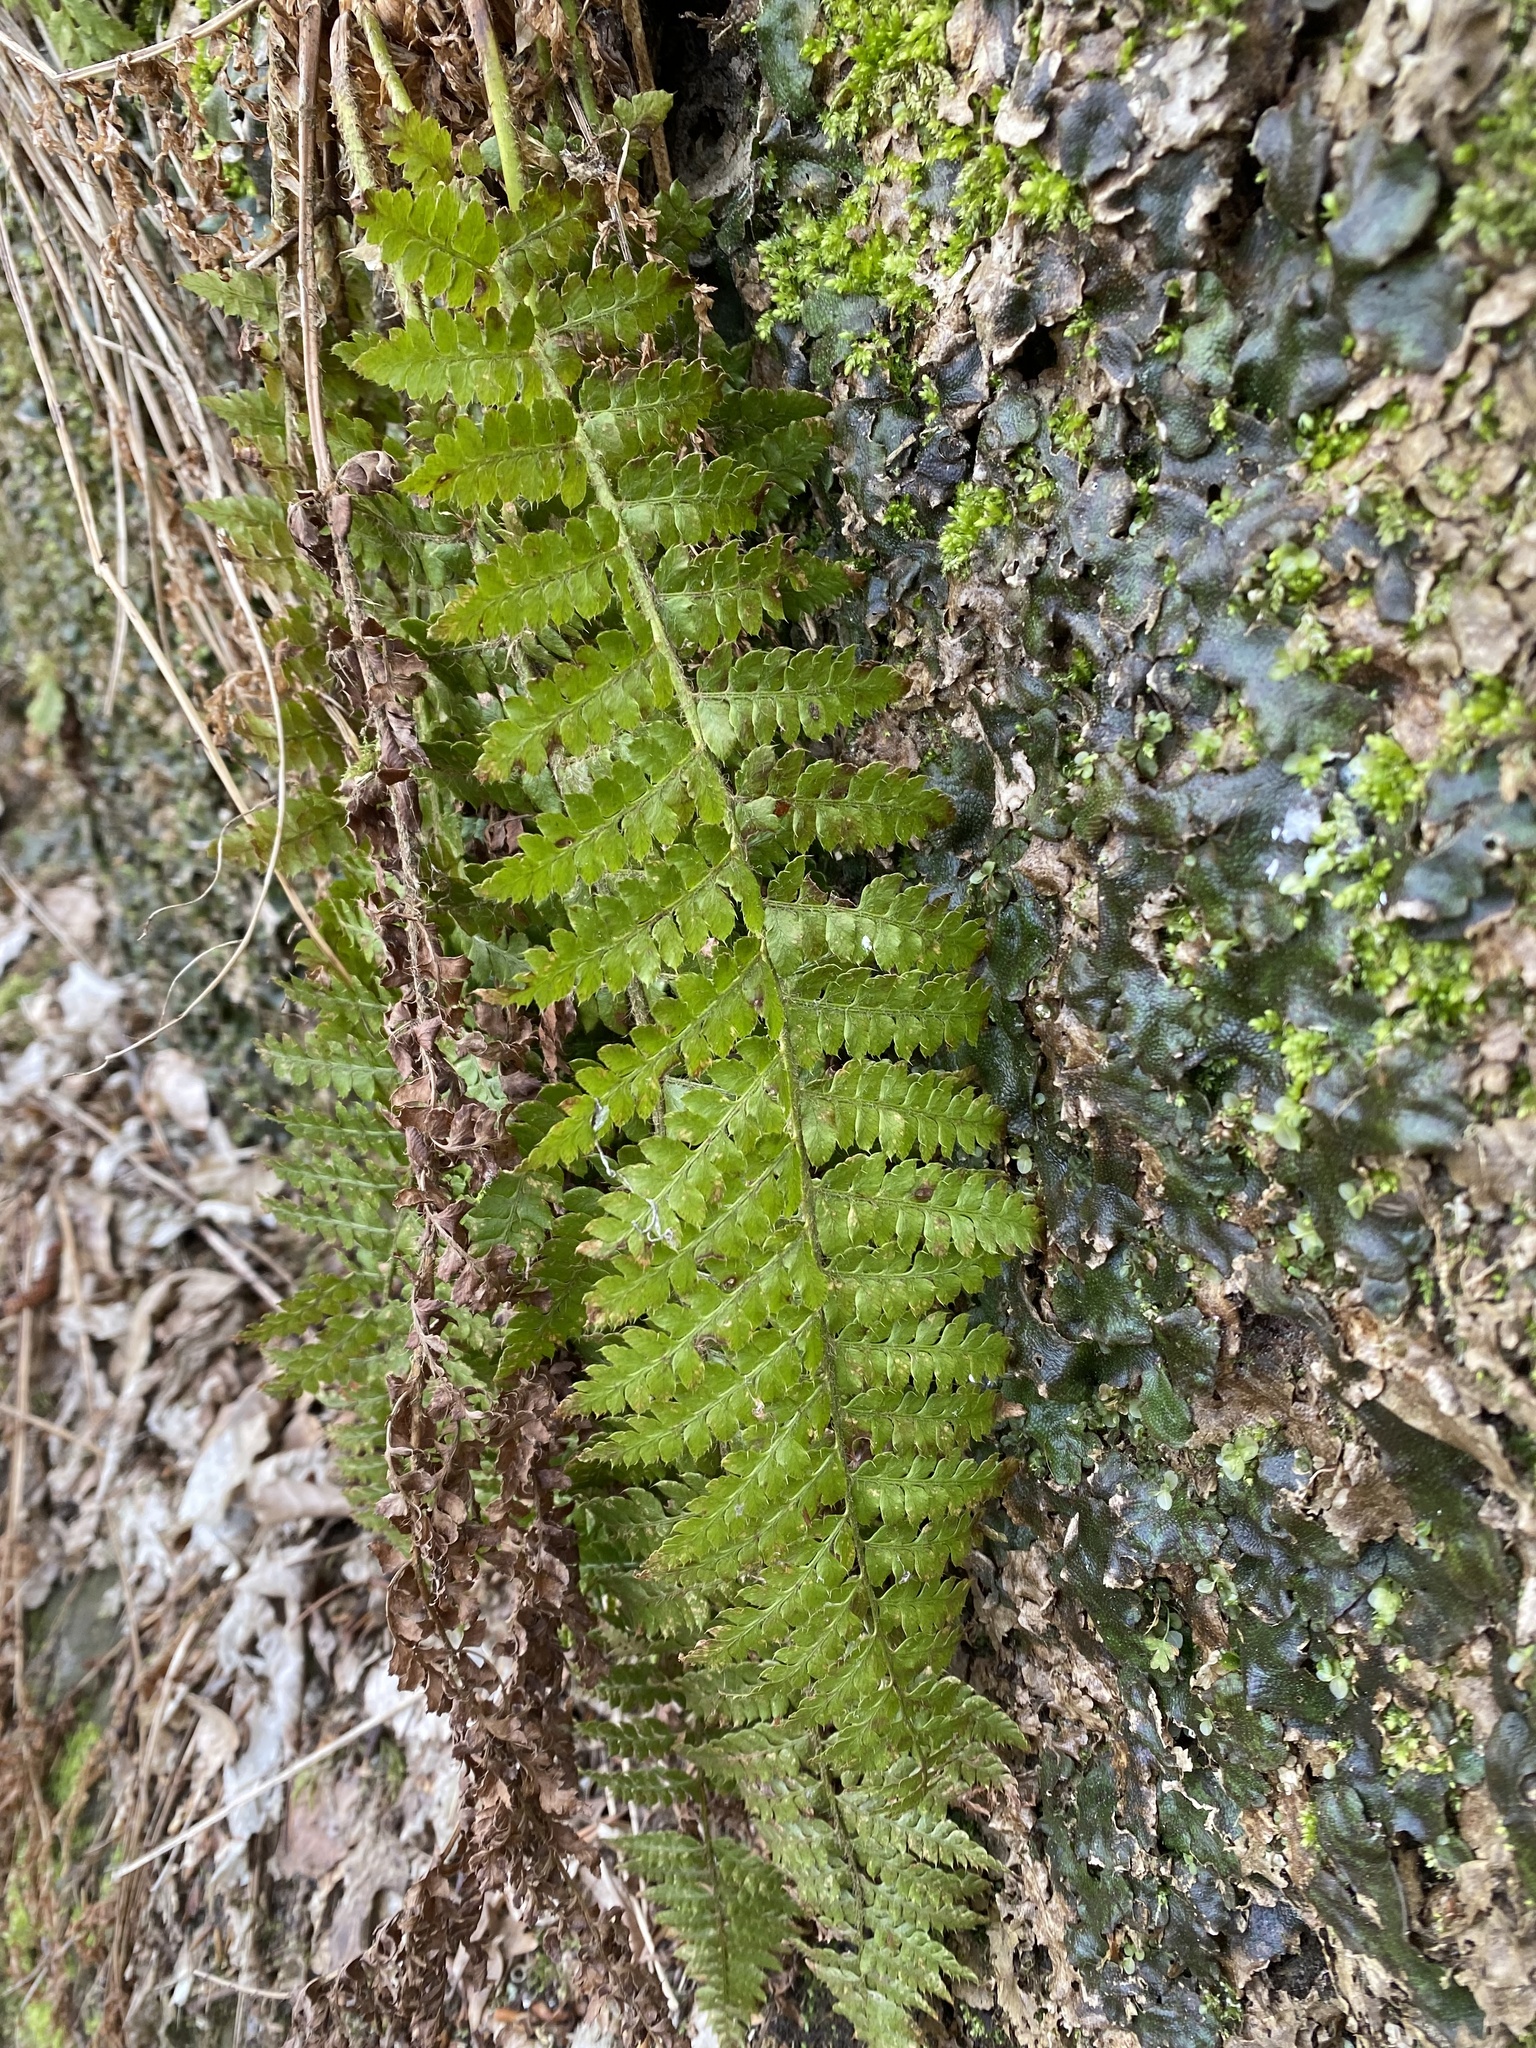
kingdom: Plantae
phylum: Tracheophyta
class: Polypodiopsida
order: Polypodiales
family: Dryopteridaceae
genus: Polystichum
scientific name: Polystichum braunii
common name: Braun's holly fern
